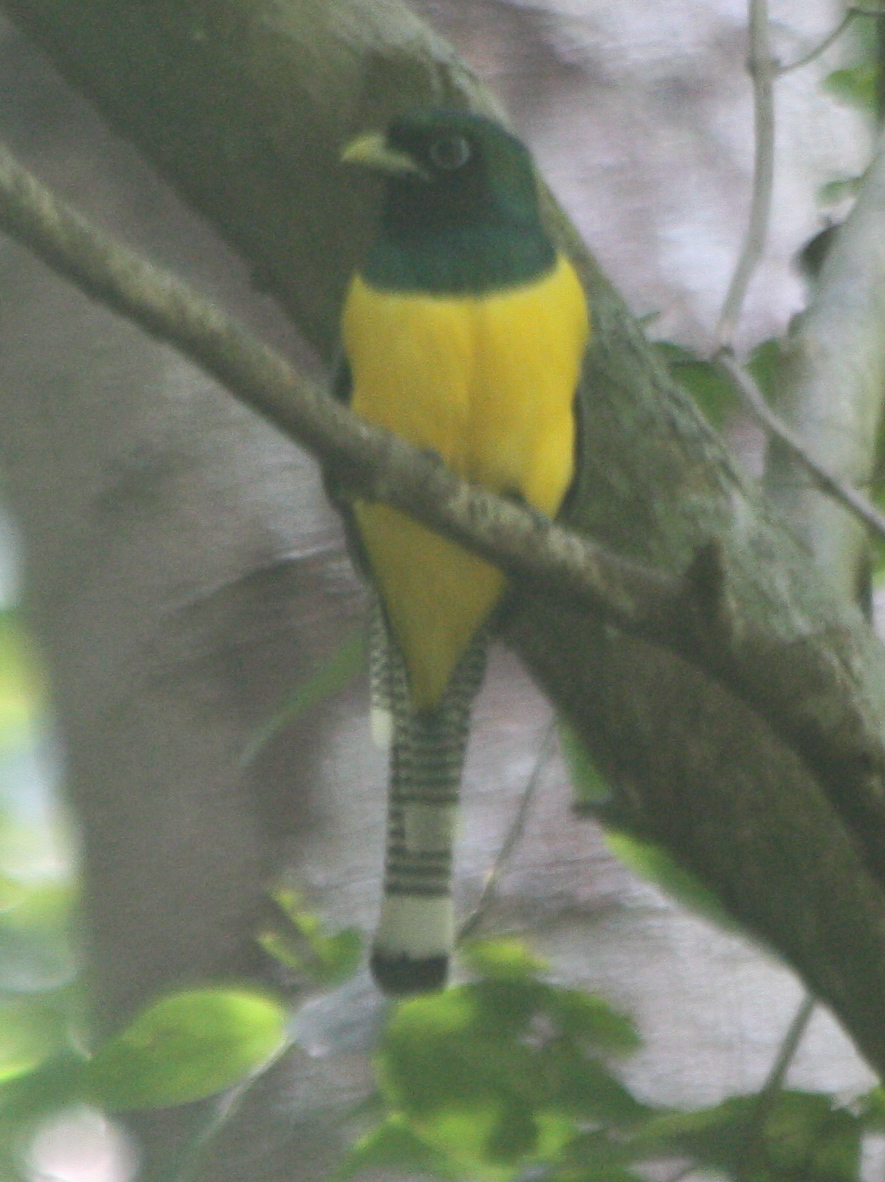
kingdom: Animalia
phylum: Chordata
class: Aves
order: Trogoniformes
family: Trogonidae
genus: Trogon
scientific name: Trogon rufus
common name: Black-throated trogon
